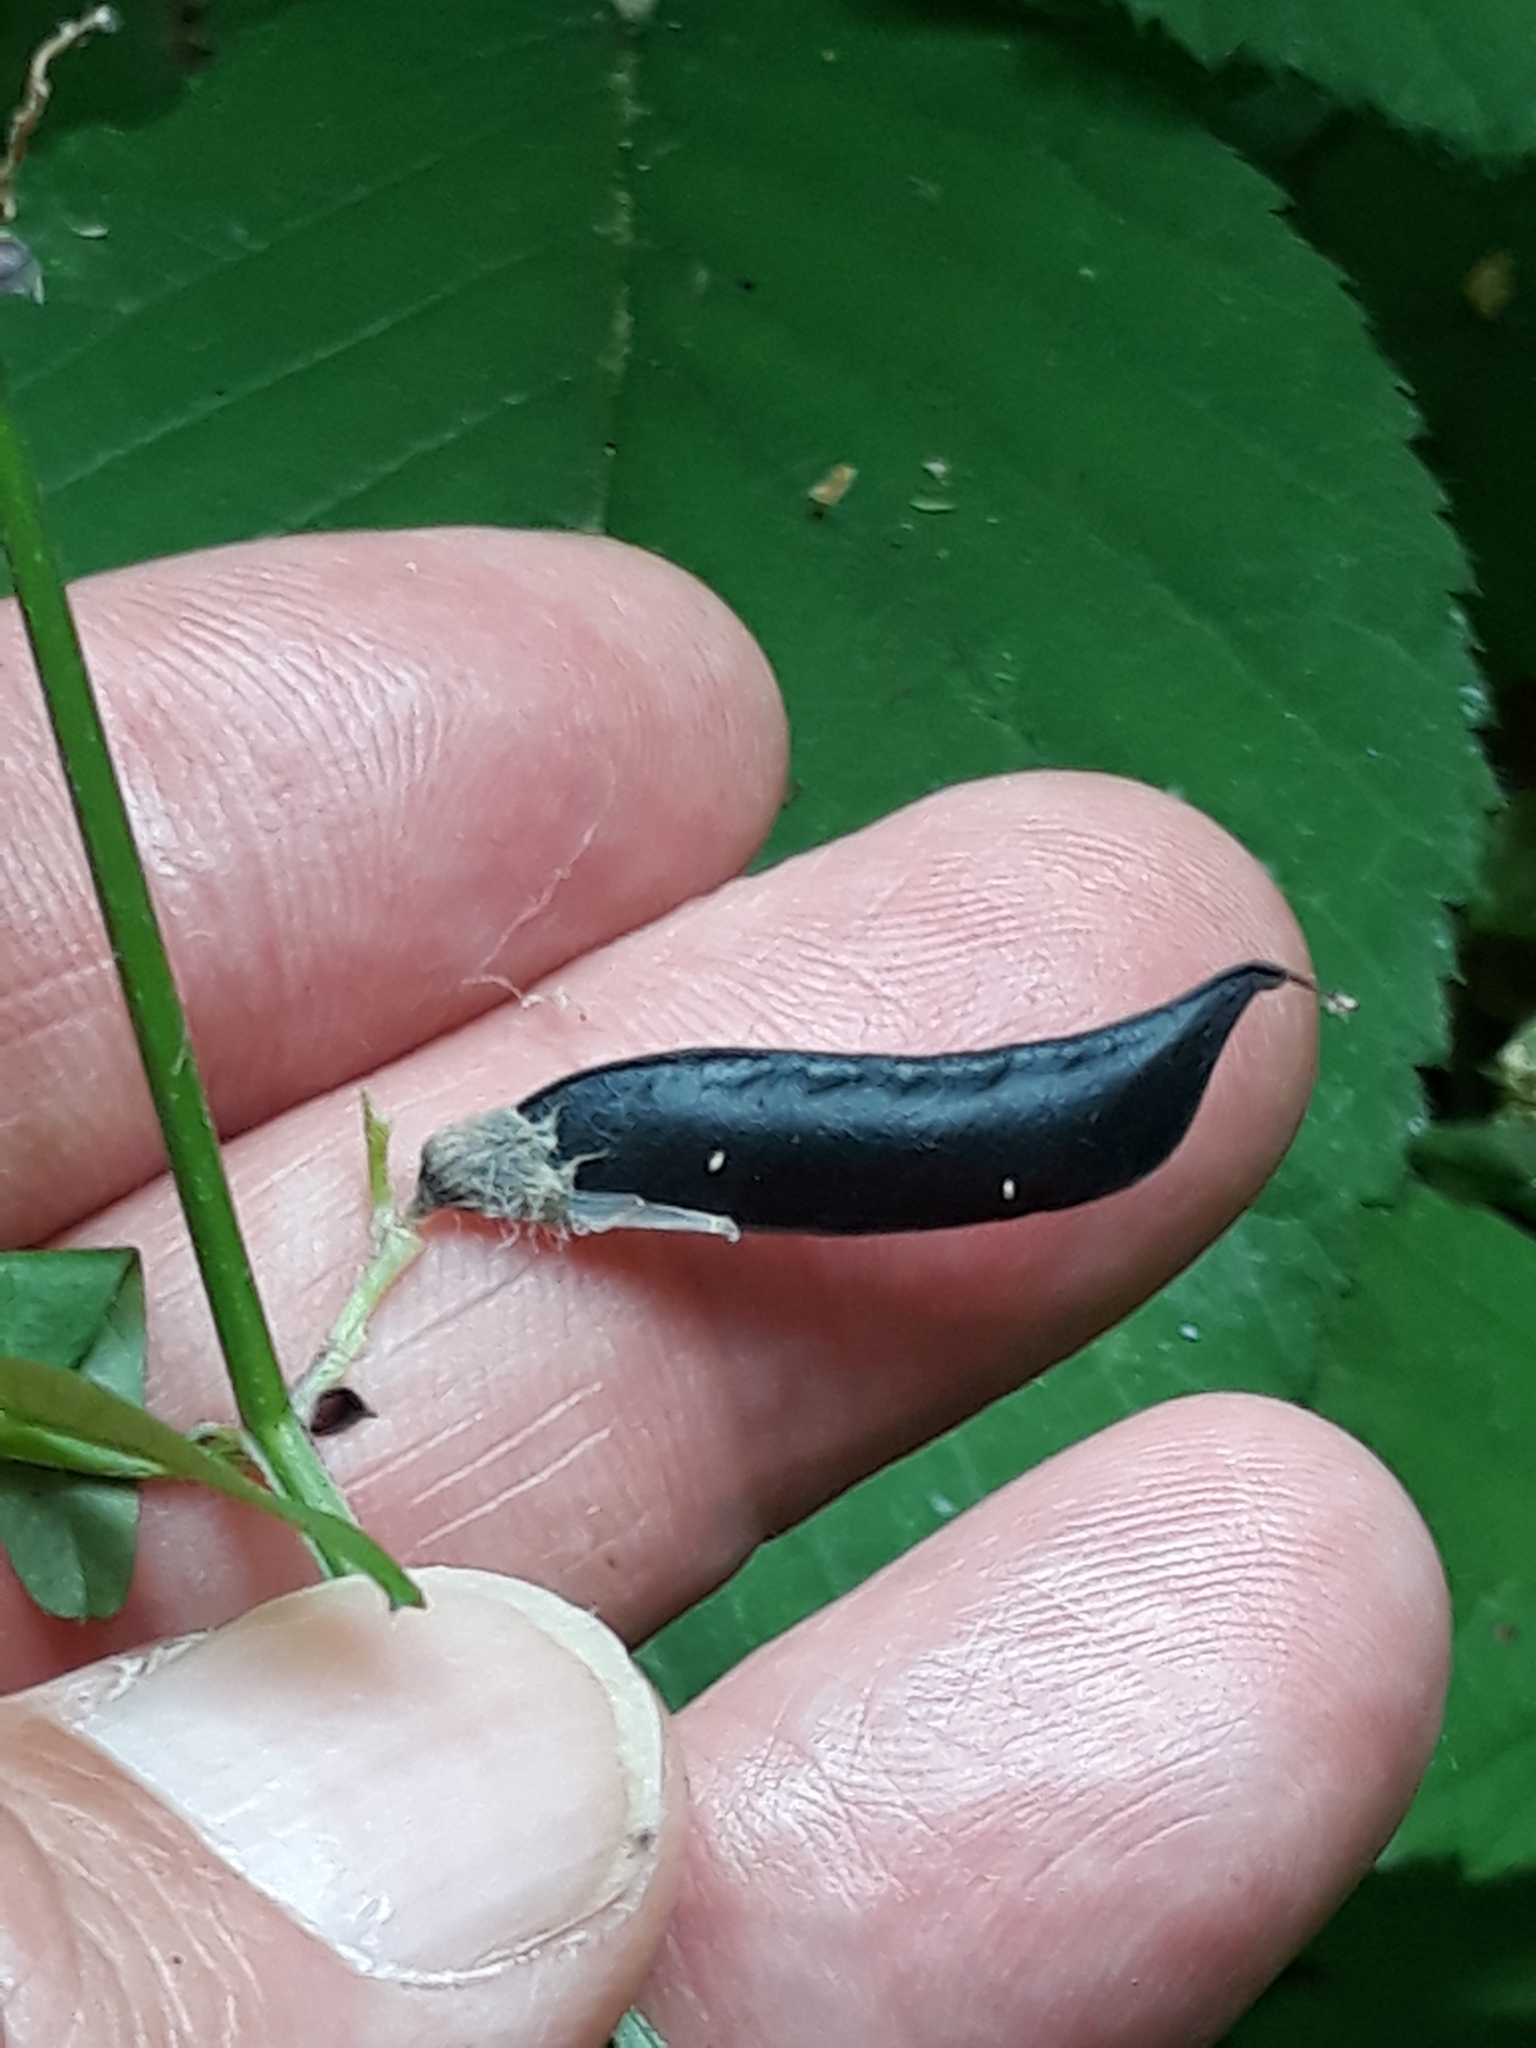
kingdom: Plantae
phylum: Tracheophyta
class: Magnoliopsida
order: Fabales
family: Fabaceae
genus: Vicia
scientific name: Vicia sepium
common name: Bush vetch
